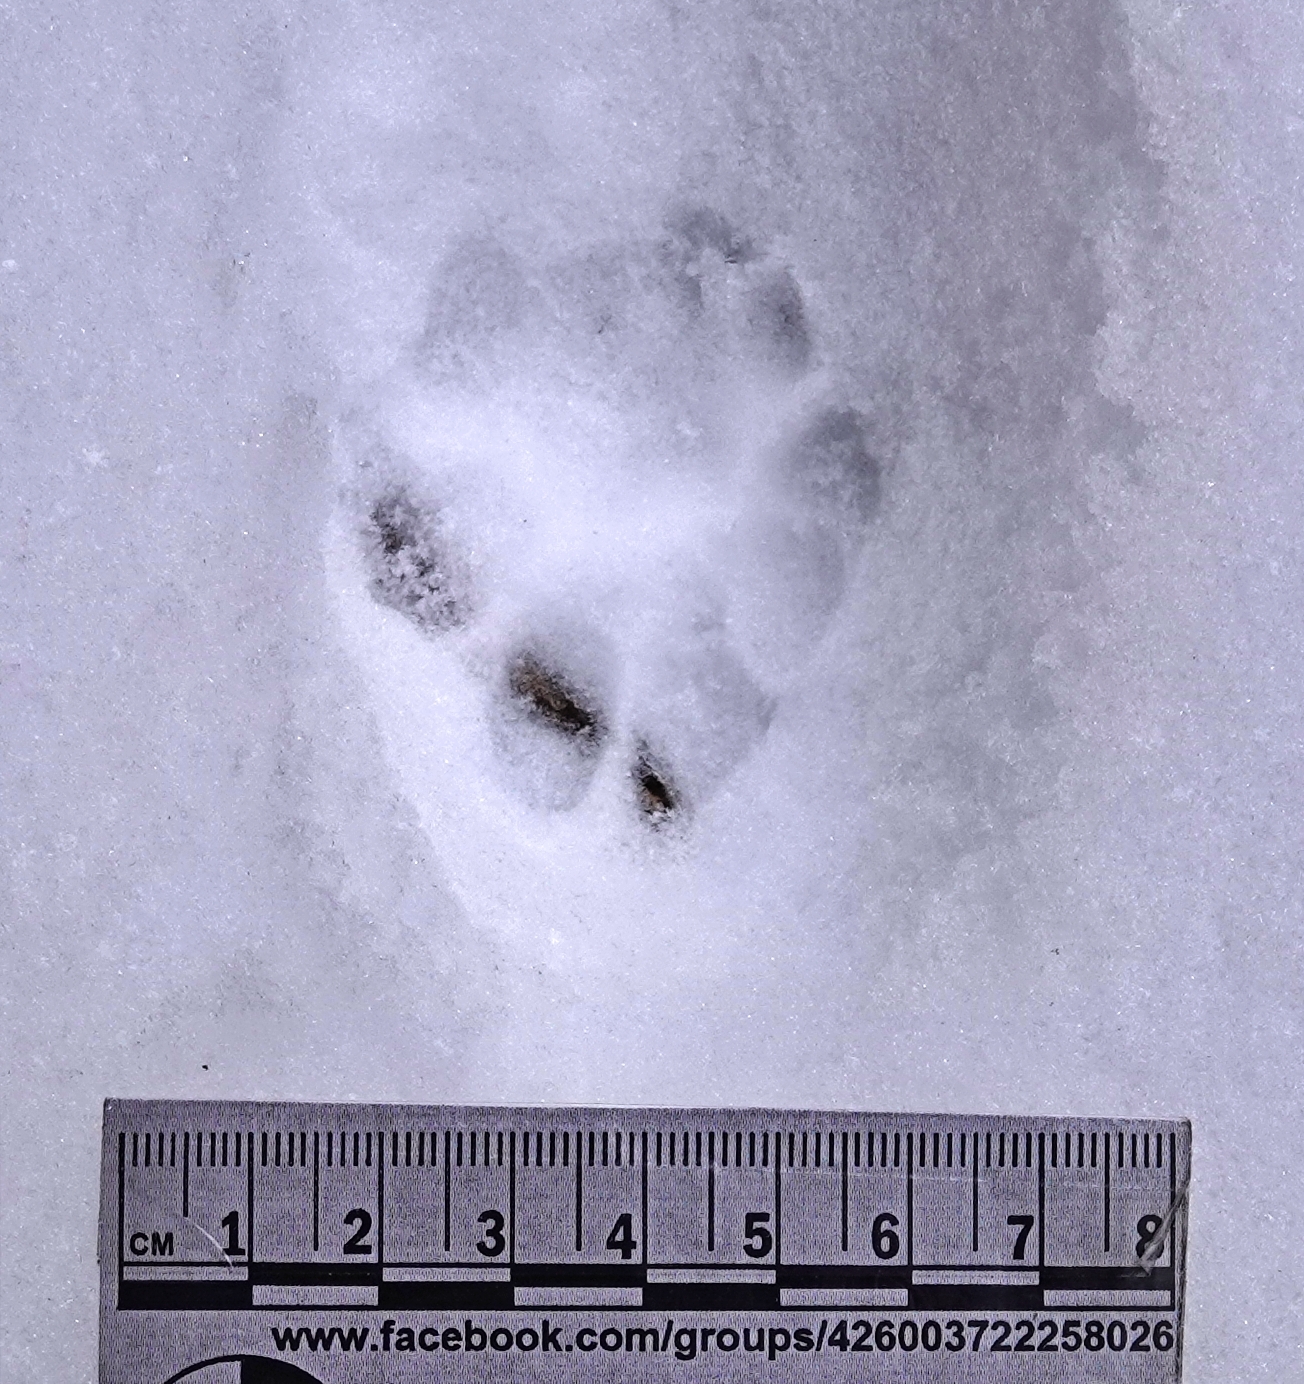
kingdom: Animalia
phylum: Chordata
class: Mammalia
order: Carnivora
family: Felidae
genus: Lynx
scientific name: Lynx rufus
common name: Bobcat
